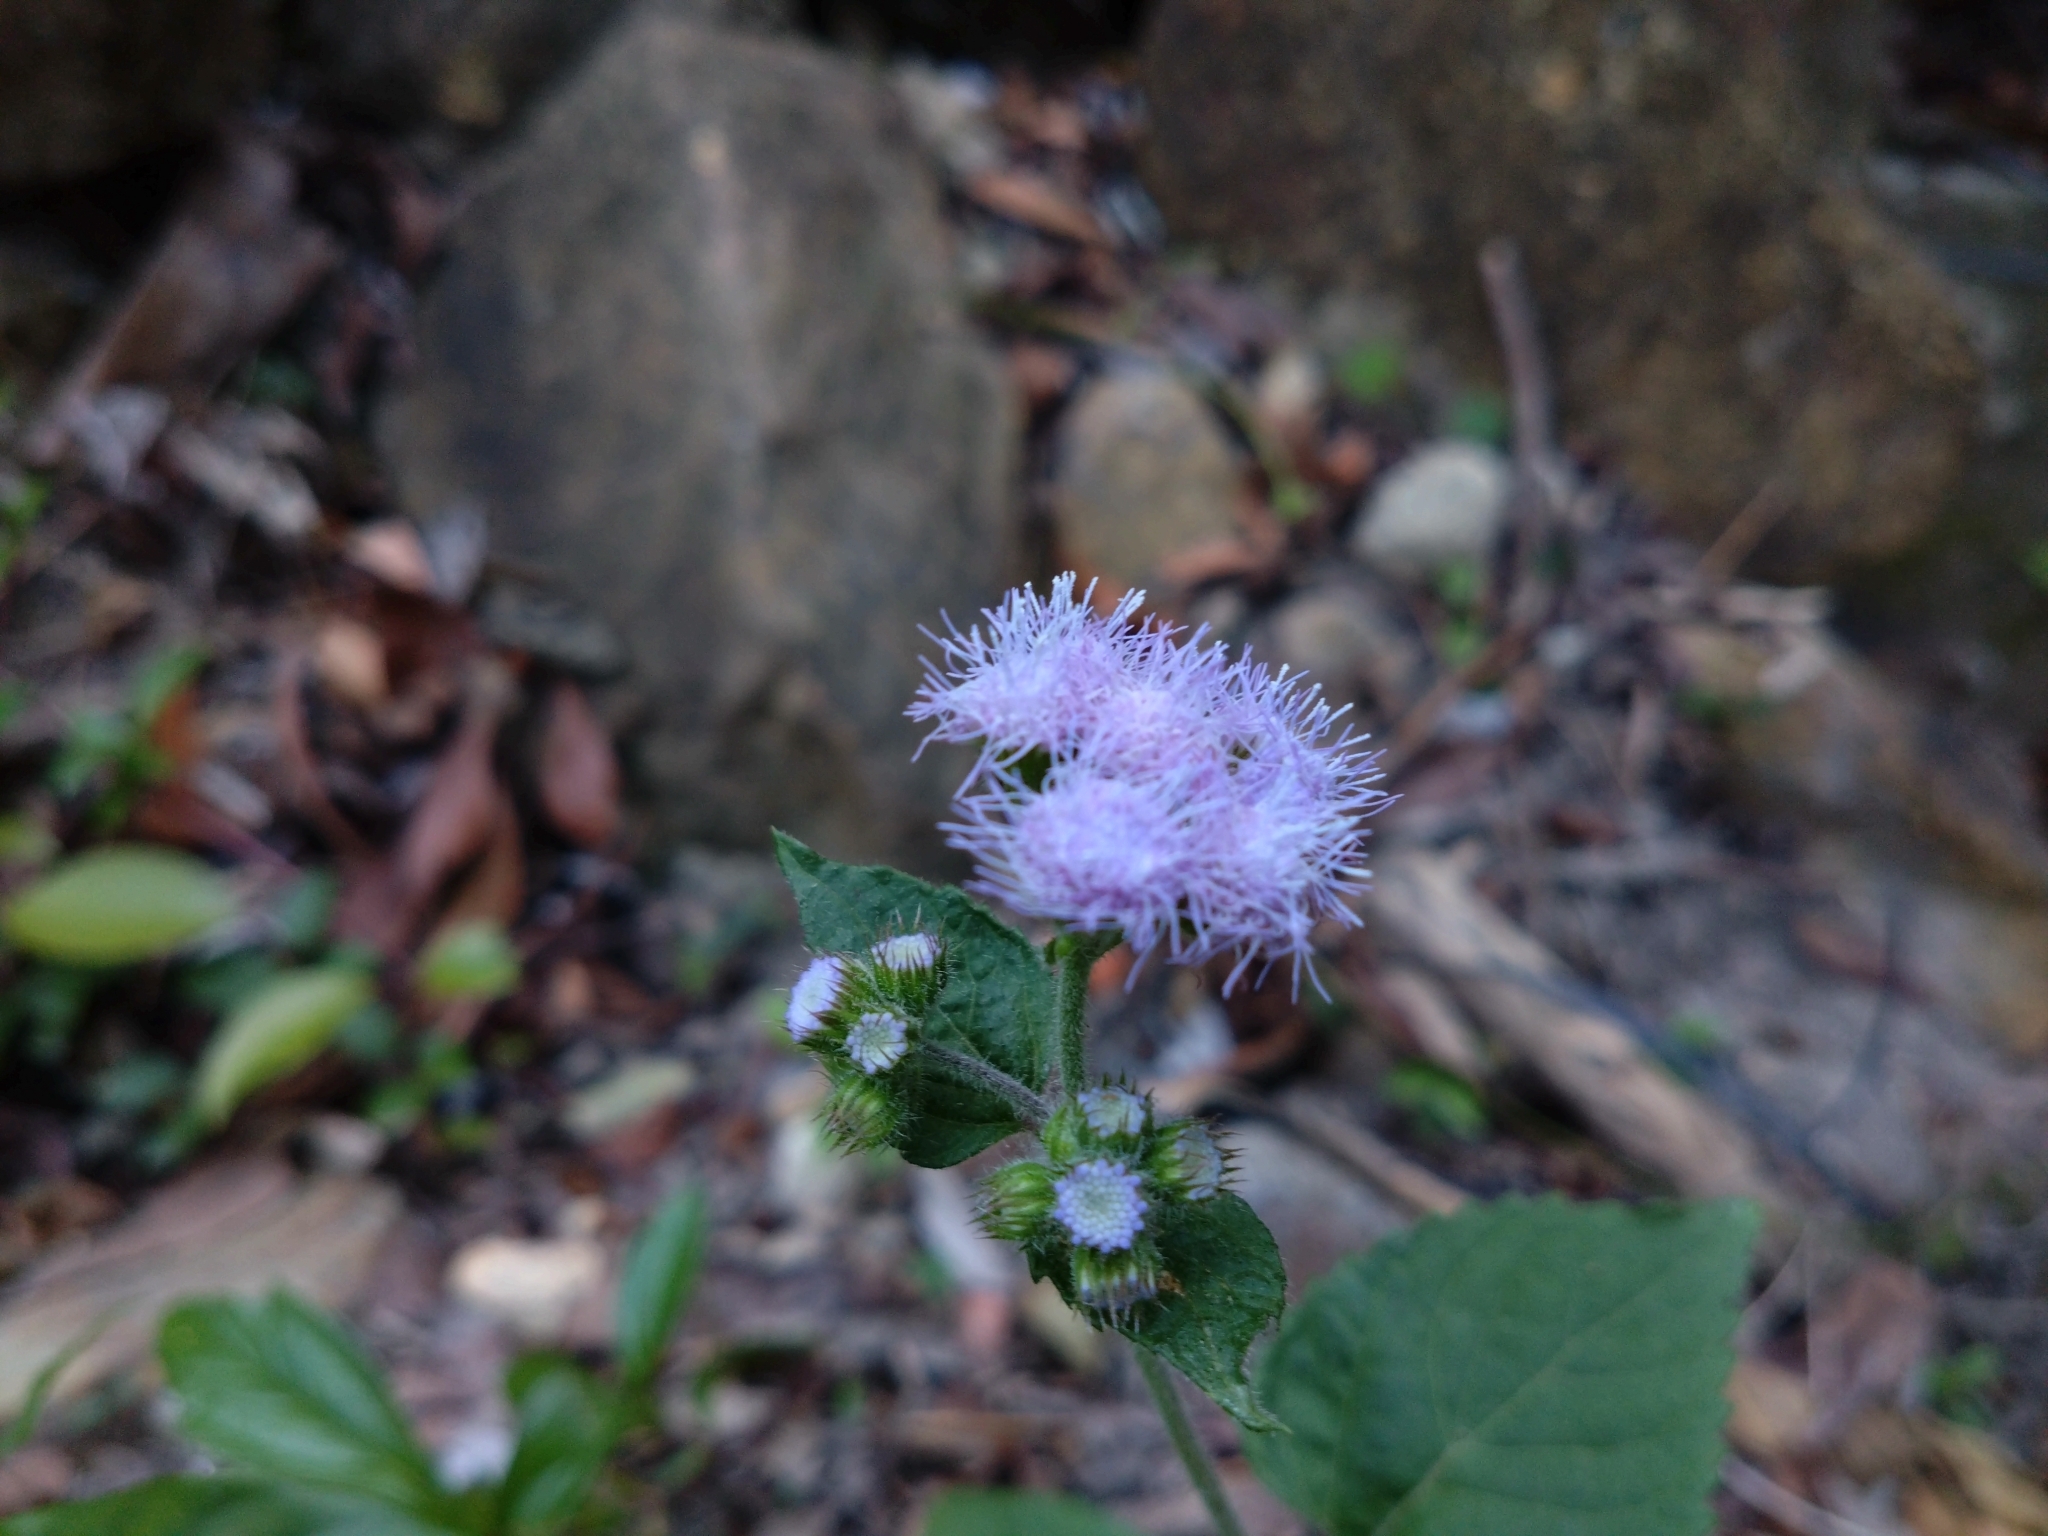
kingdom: Plantae
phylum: Tracheophyta
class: Magnoliopsida
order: Asterales
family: Asteraceae
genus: Ageratum
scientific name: Ageratum houstonianum
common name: Bluemink
